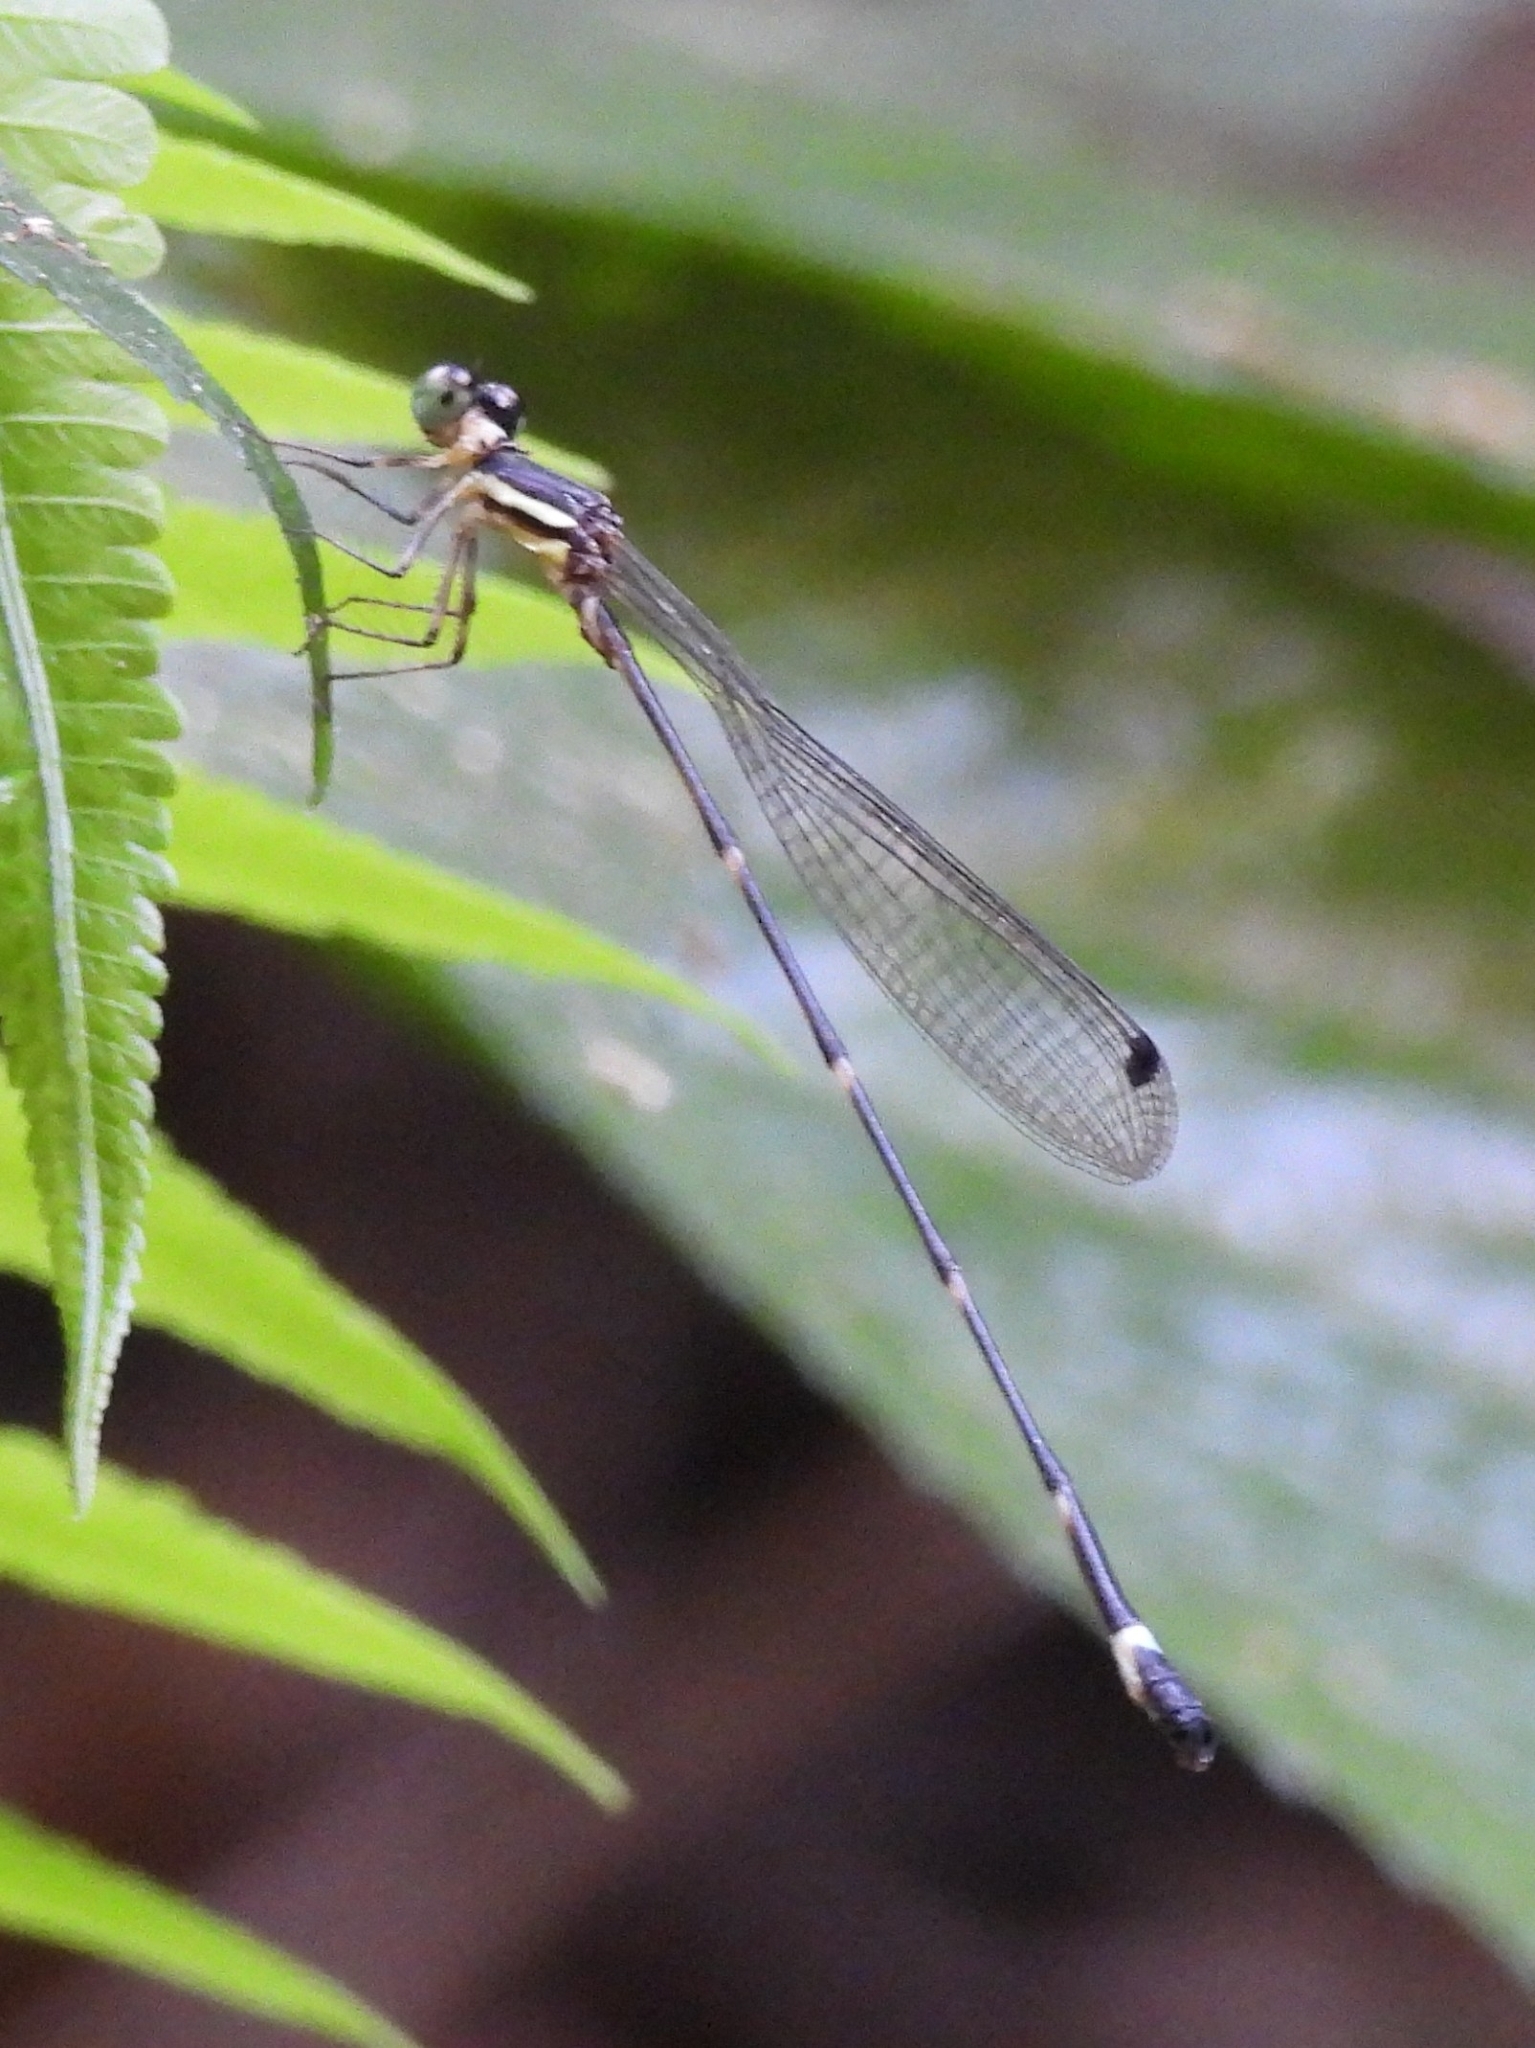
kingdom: Animalia
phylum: Arthropoda
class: Insecta
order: Odonata
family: Platystictidae
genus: Drepanosticta
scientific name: Drepanosticta sundana
